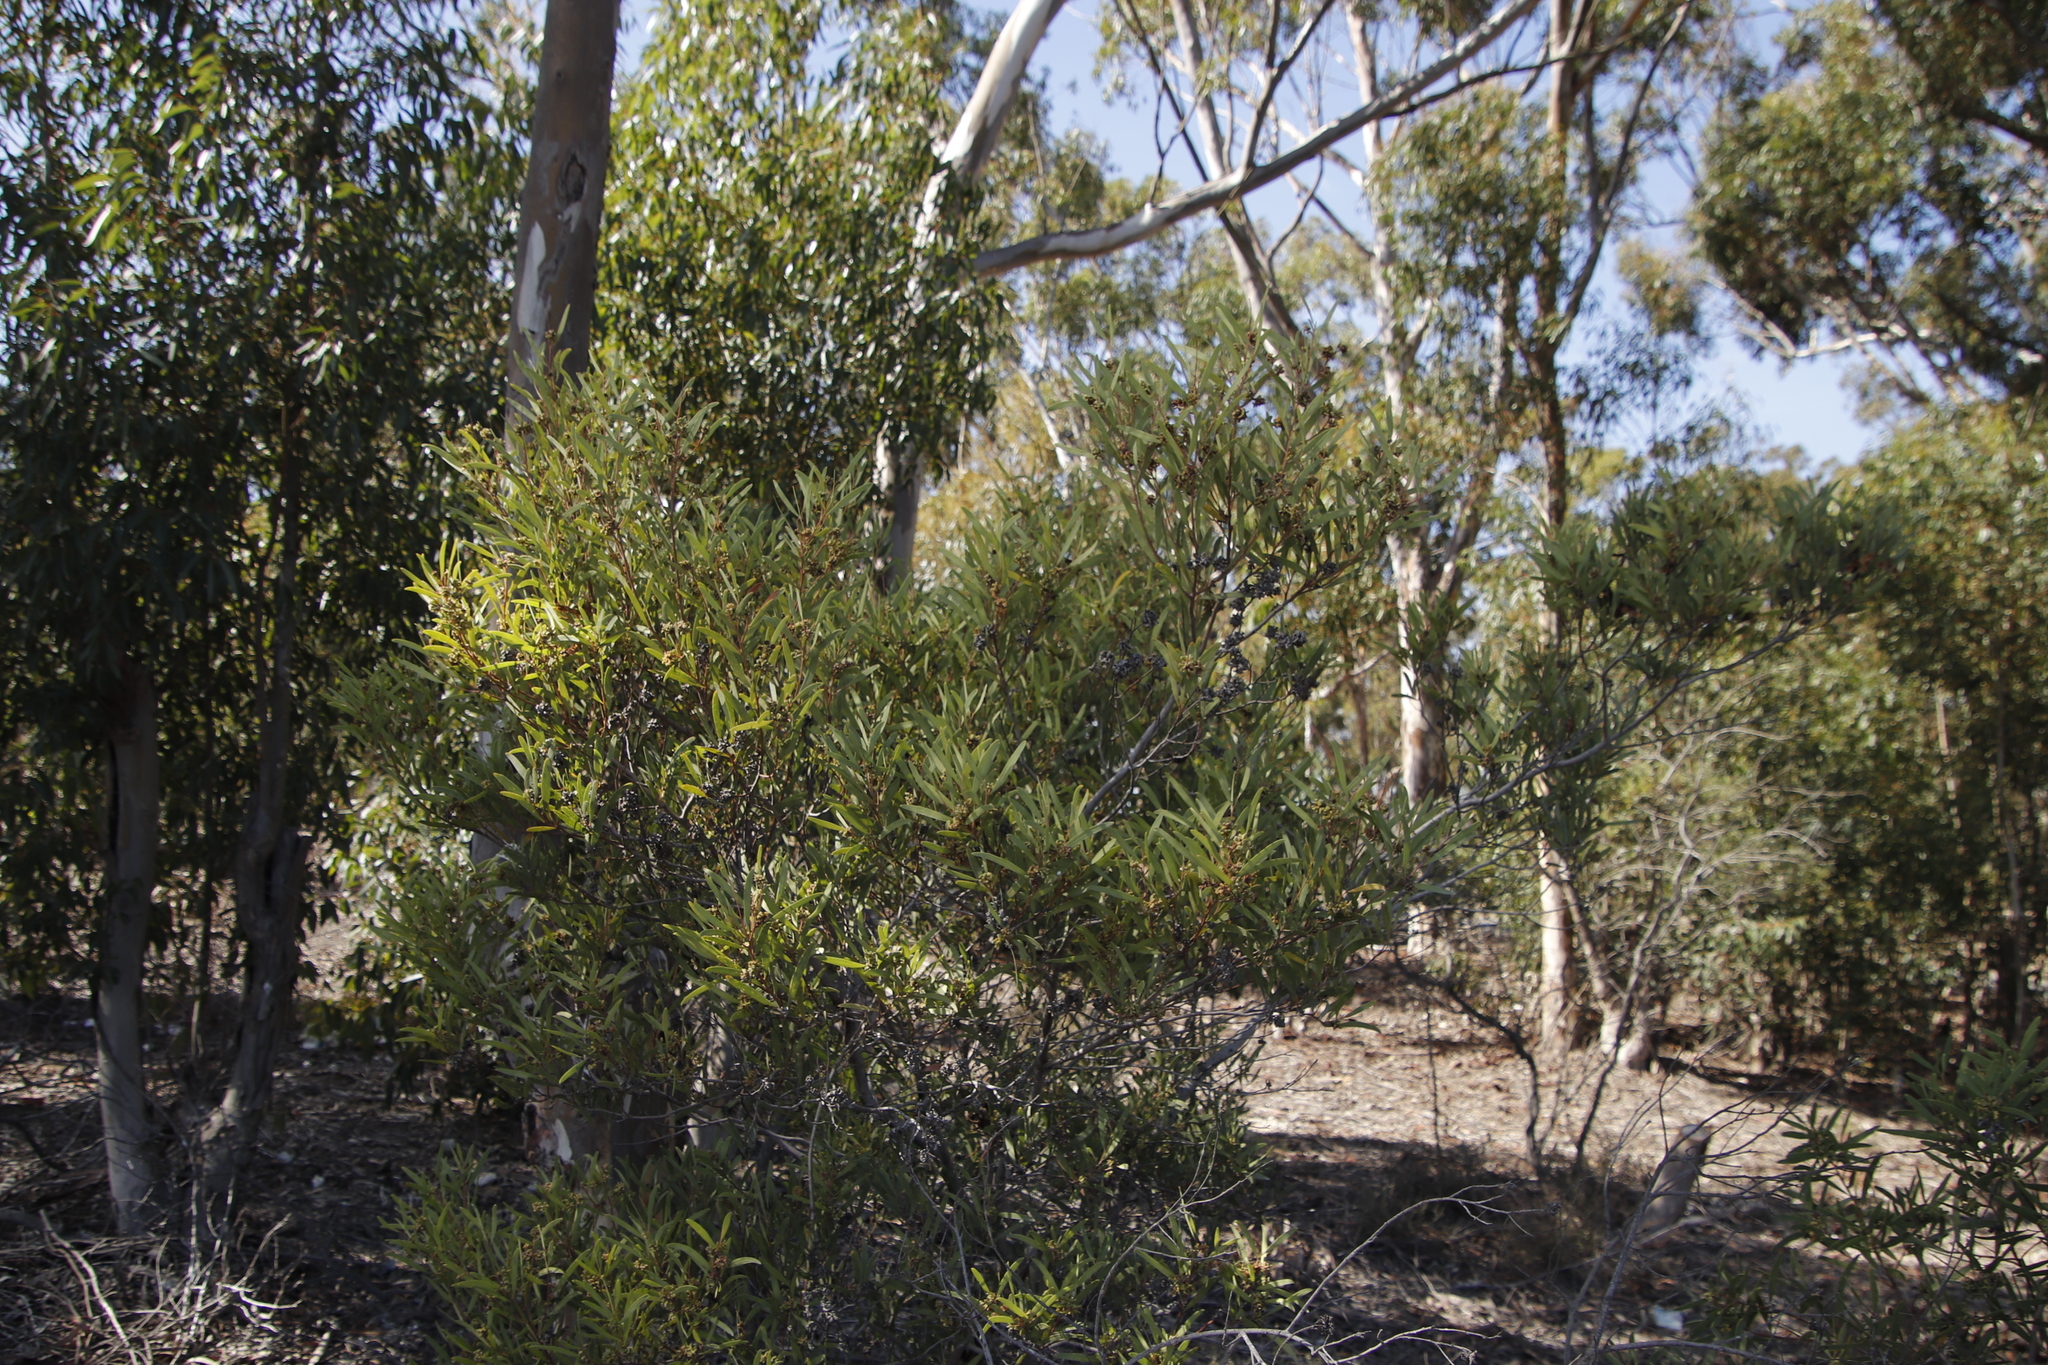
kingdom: Plantae
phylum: Tracheophyta
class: Magnoliopsida
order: Fabales
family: Fabaceae
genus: Acacia
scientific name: Acacia cyclops
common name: Coastal wattle
